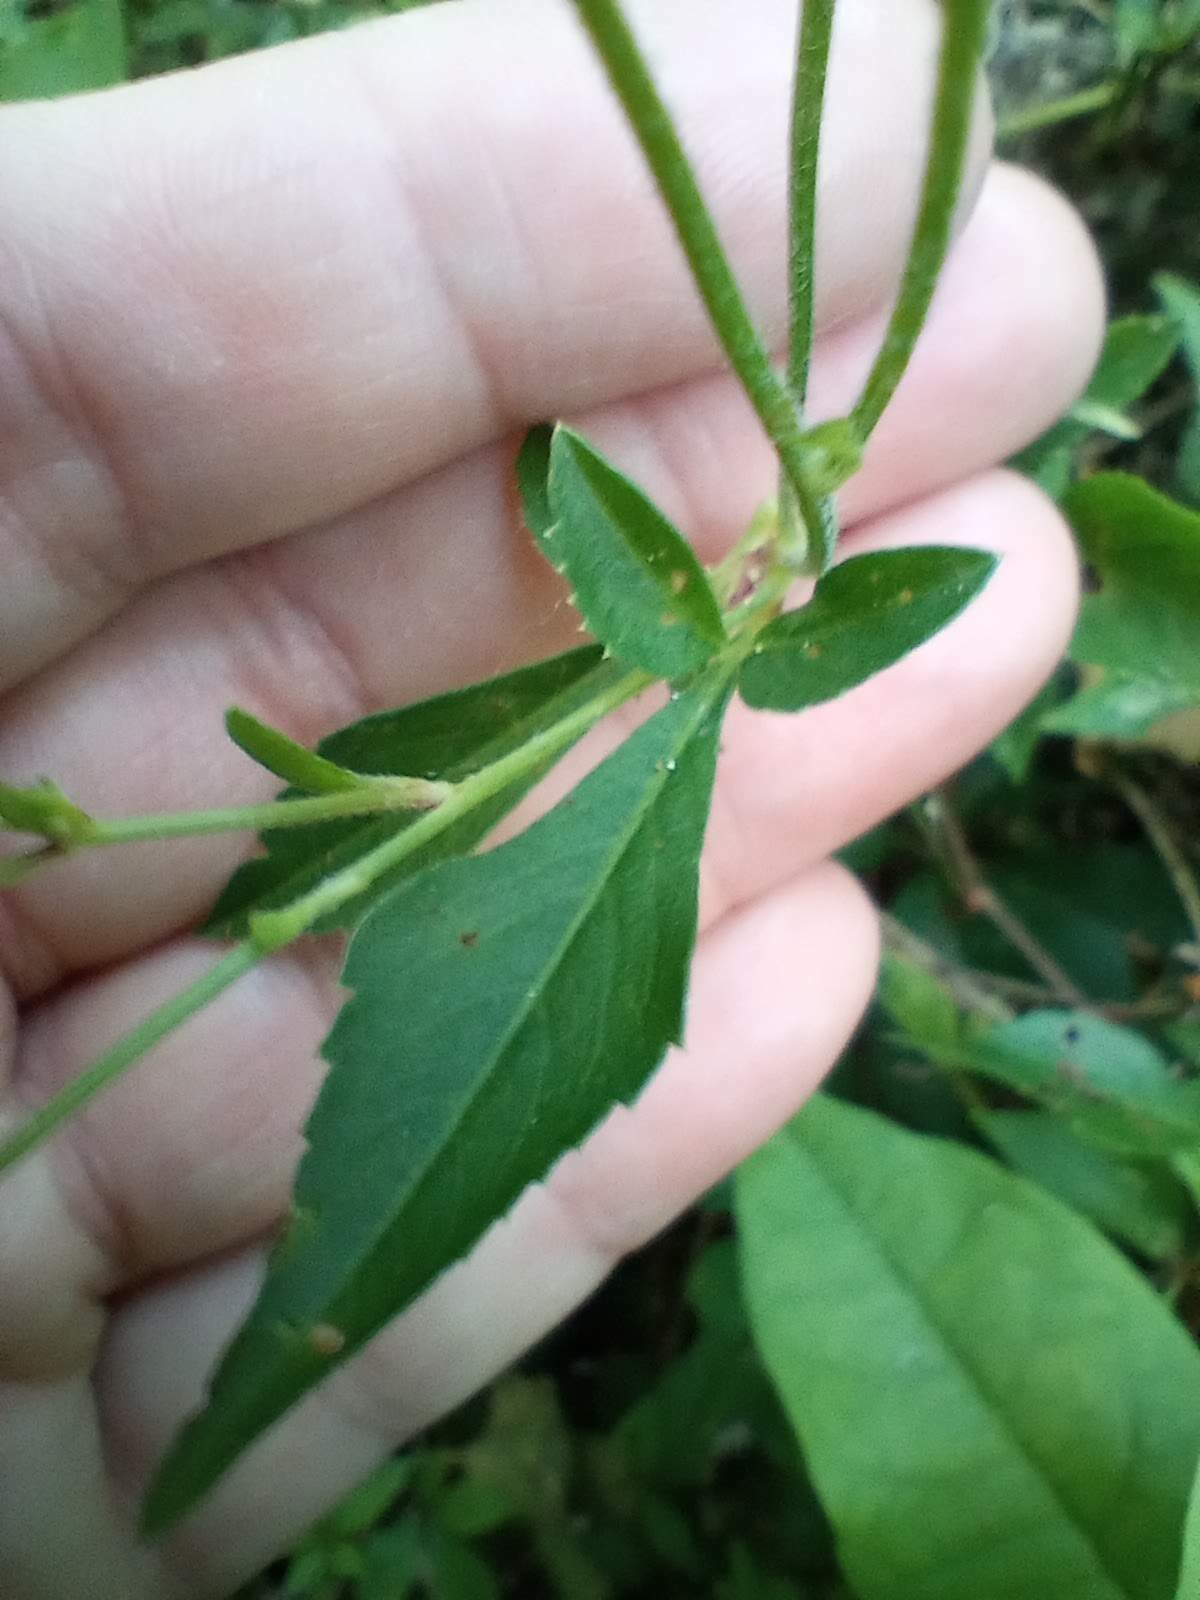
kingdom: Plantae
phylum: Tracheophyta
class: Magnoliopsida
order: Asterales
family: Asteraceae
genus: Bidens
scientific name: Bidens alba
